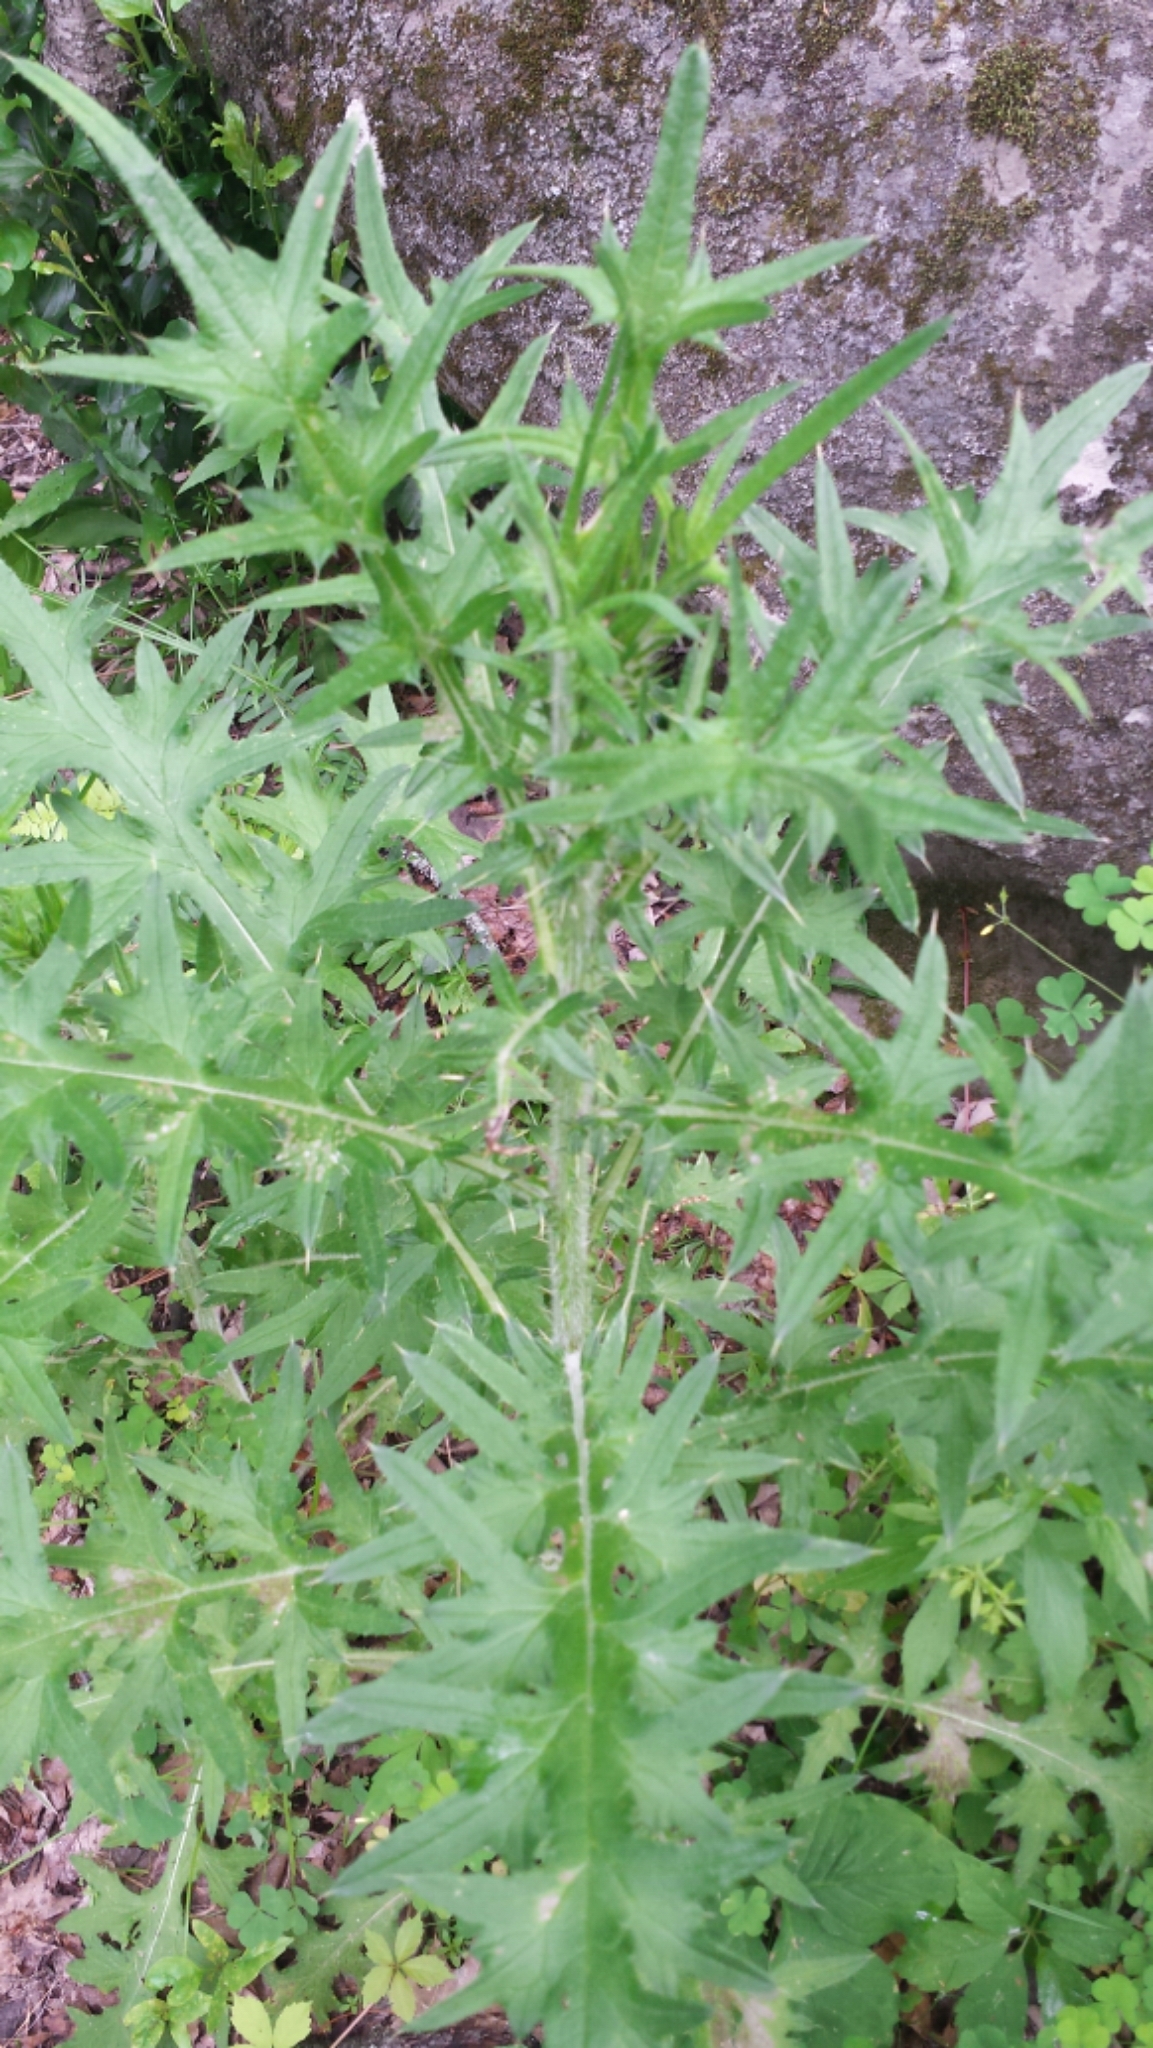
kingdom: Plantae
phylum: Tracheophyta
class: Magnoliopsida
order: Asterales
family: Asteraceae
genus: Cirsium
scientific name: Cirsium vulgare
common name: Bull thistle
